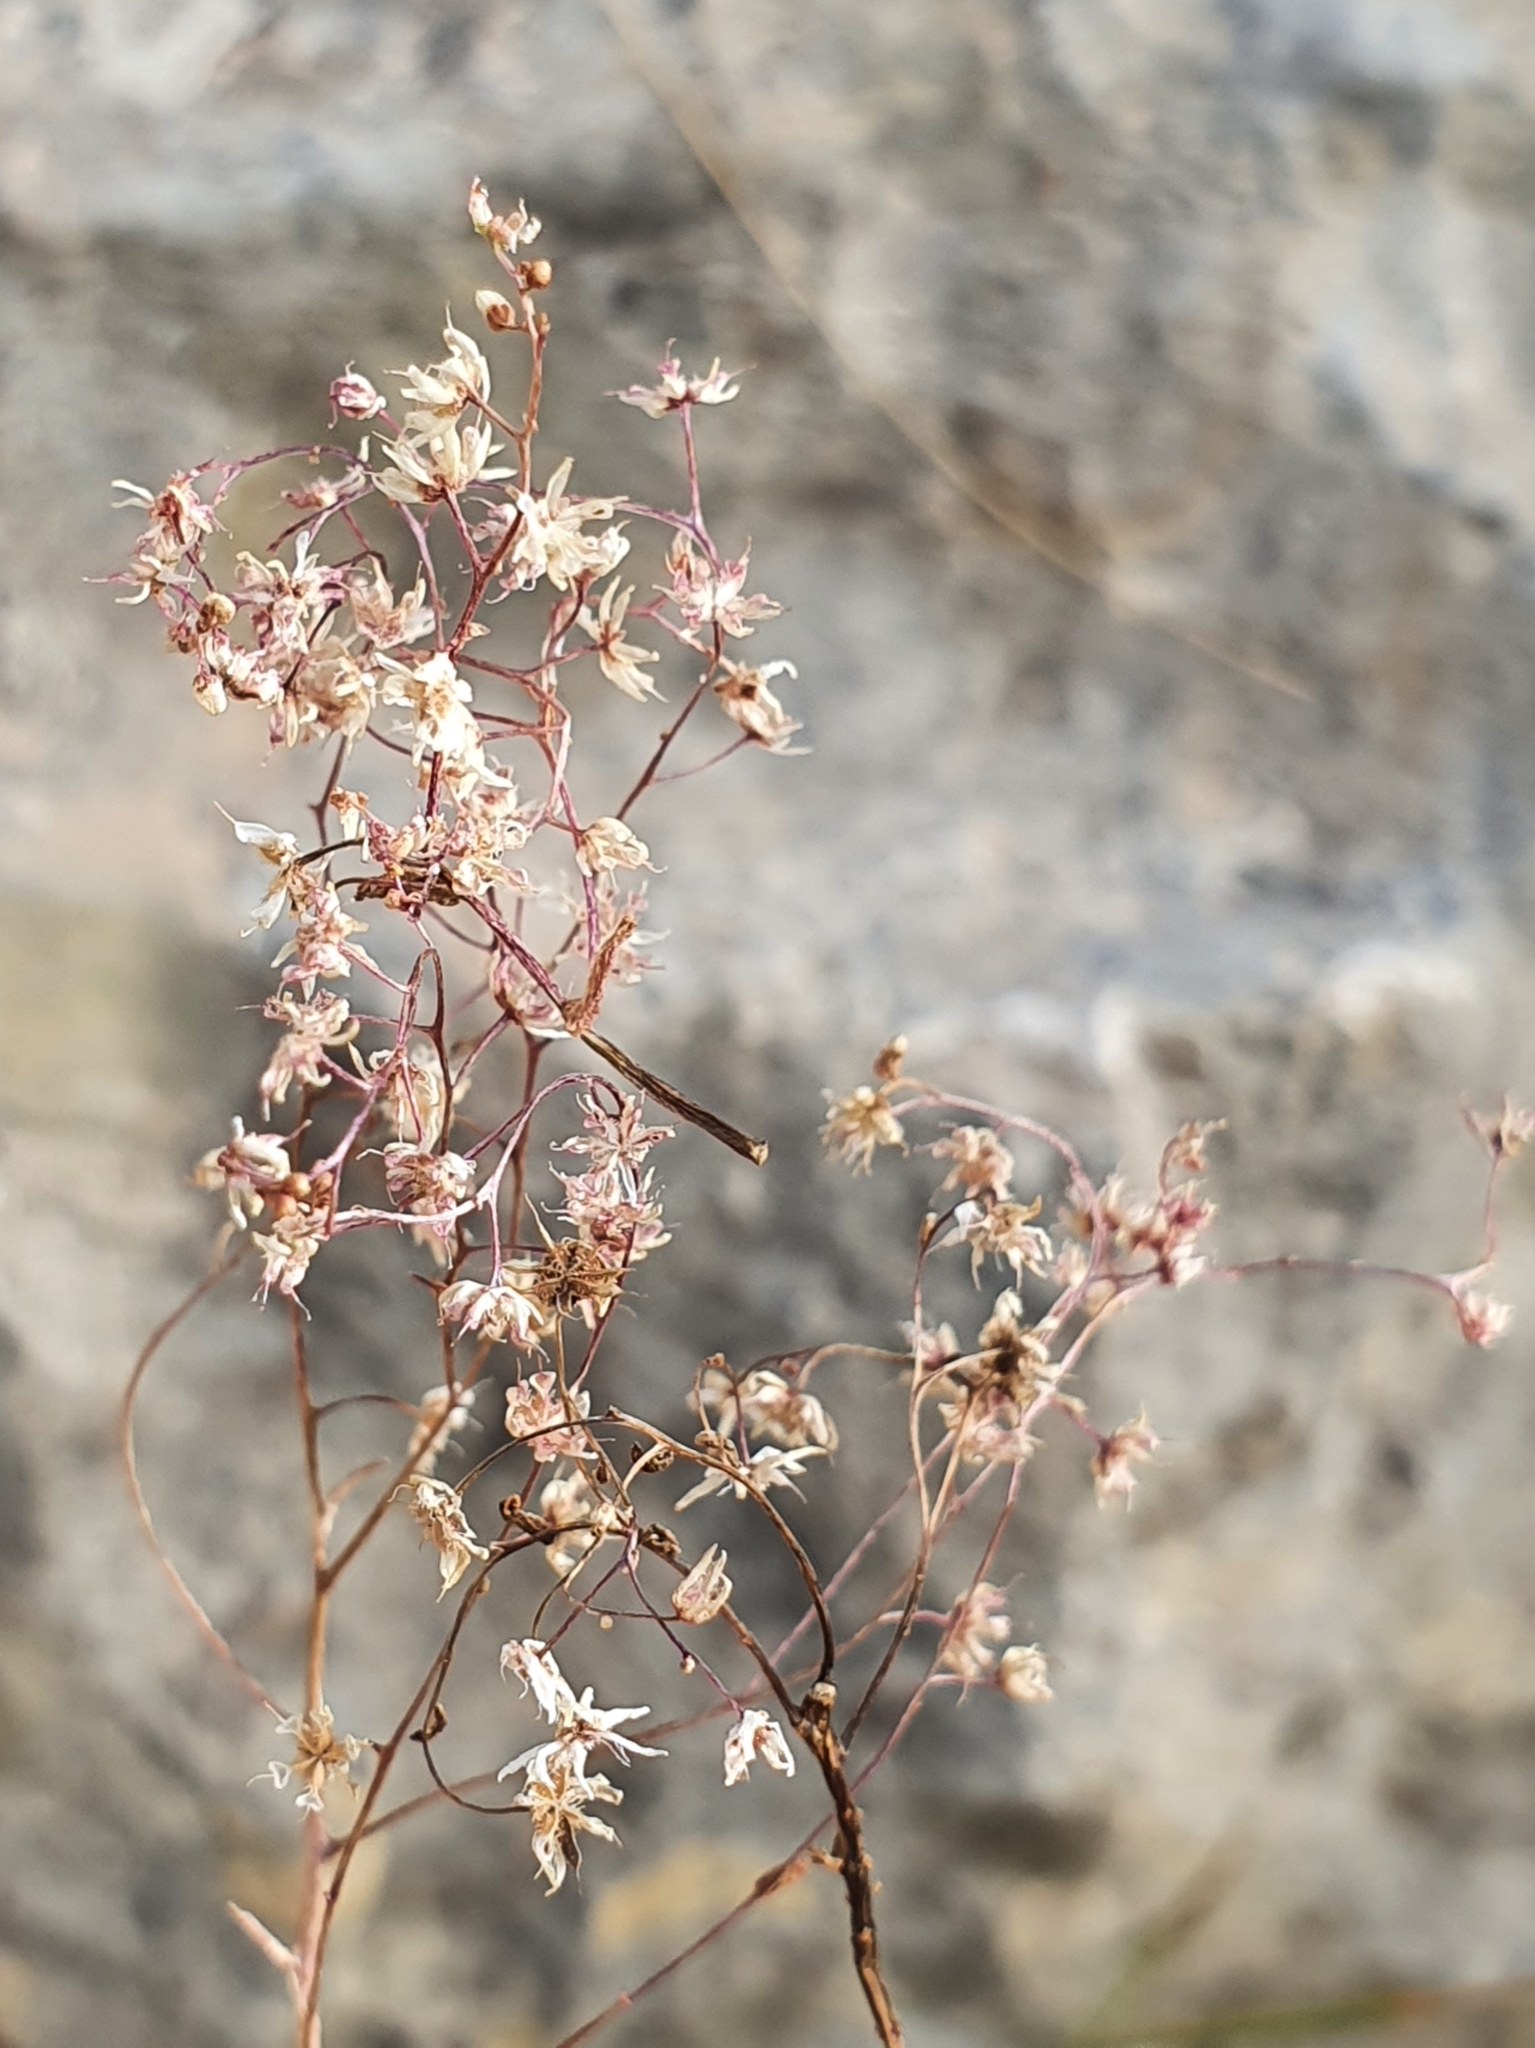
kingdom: Plantae
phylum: Tracheophyta
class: Magnoliopsida
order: Saxifragales
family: Crassulaceae
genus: Sedum
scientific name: Sedum caeruleum
